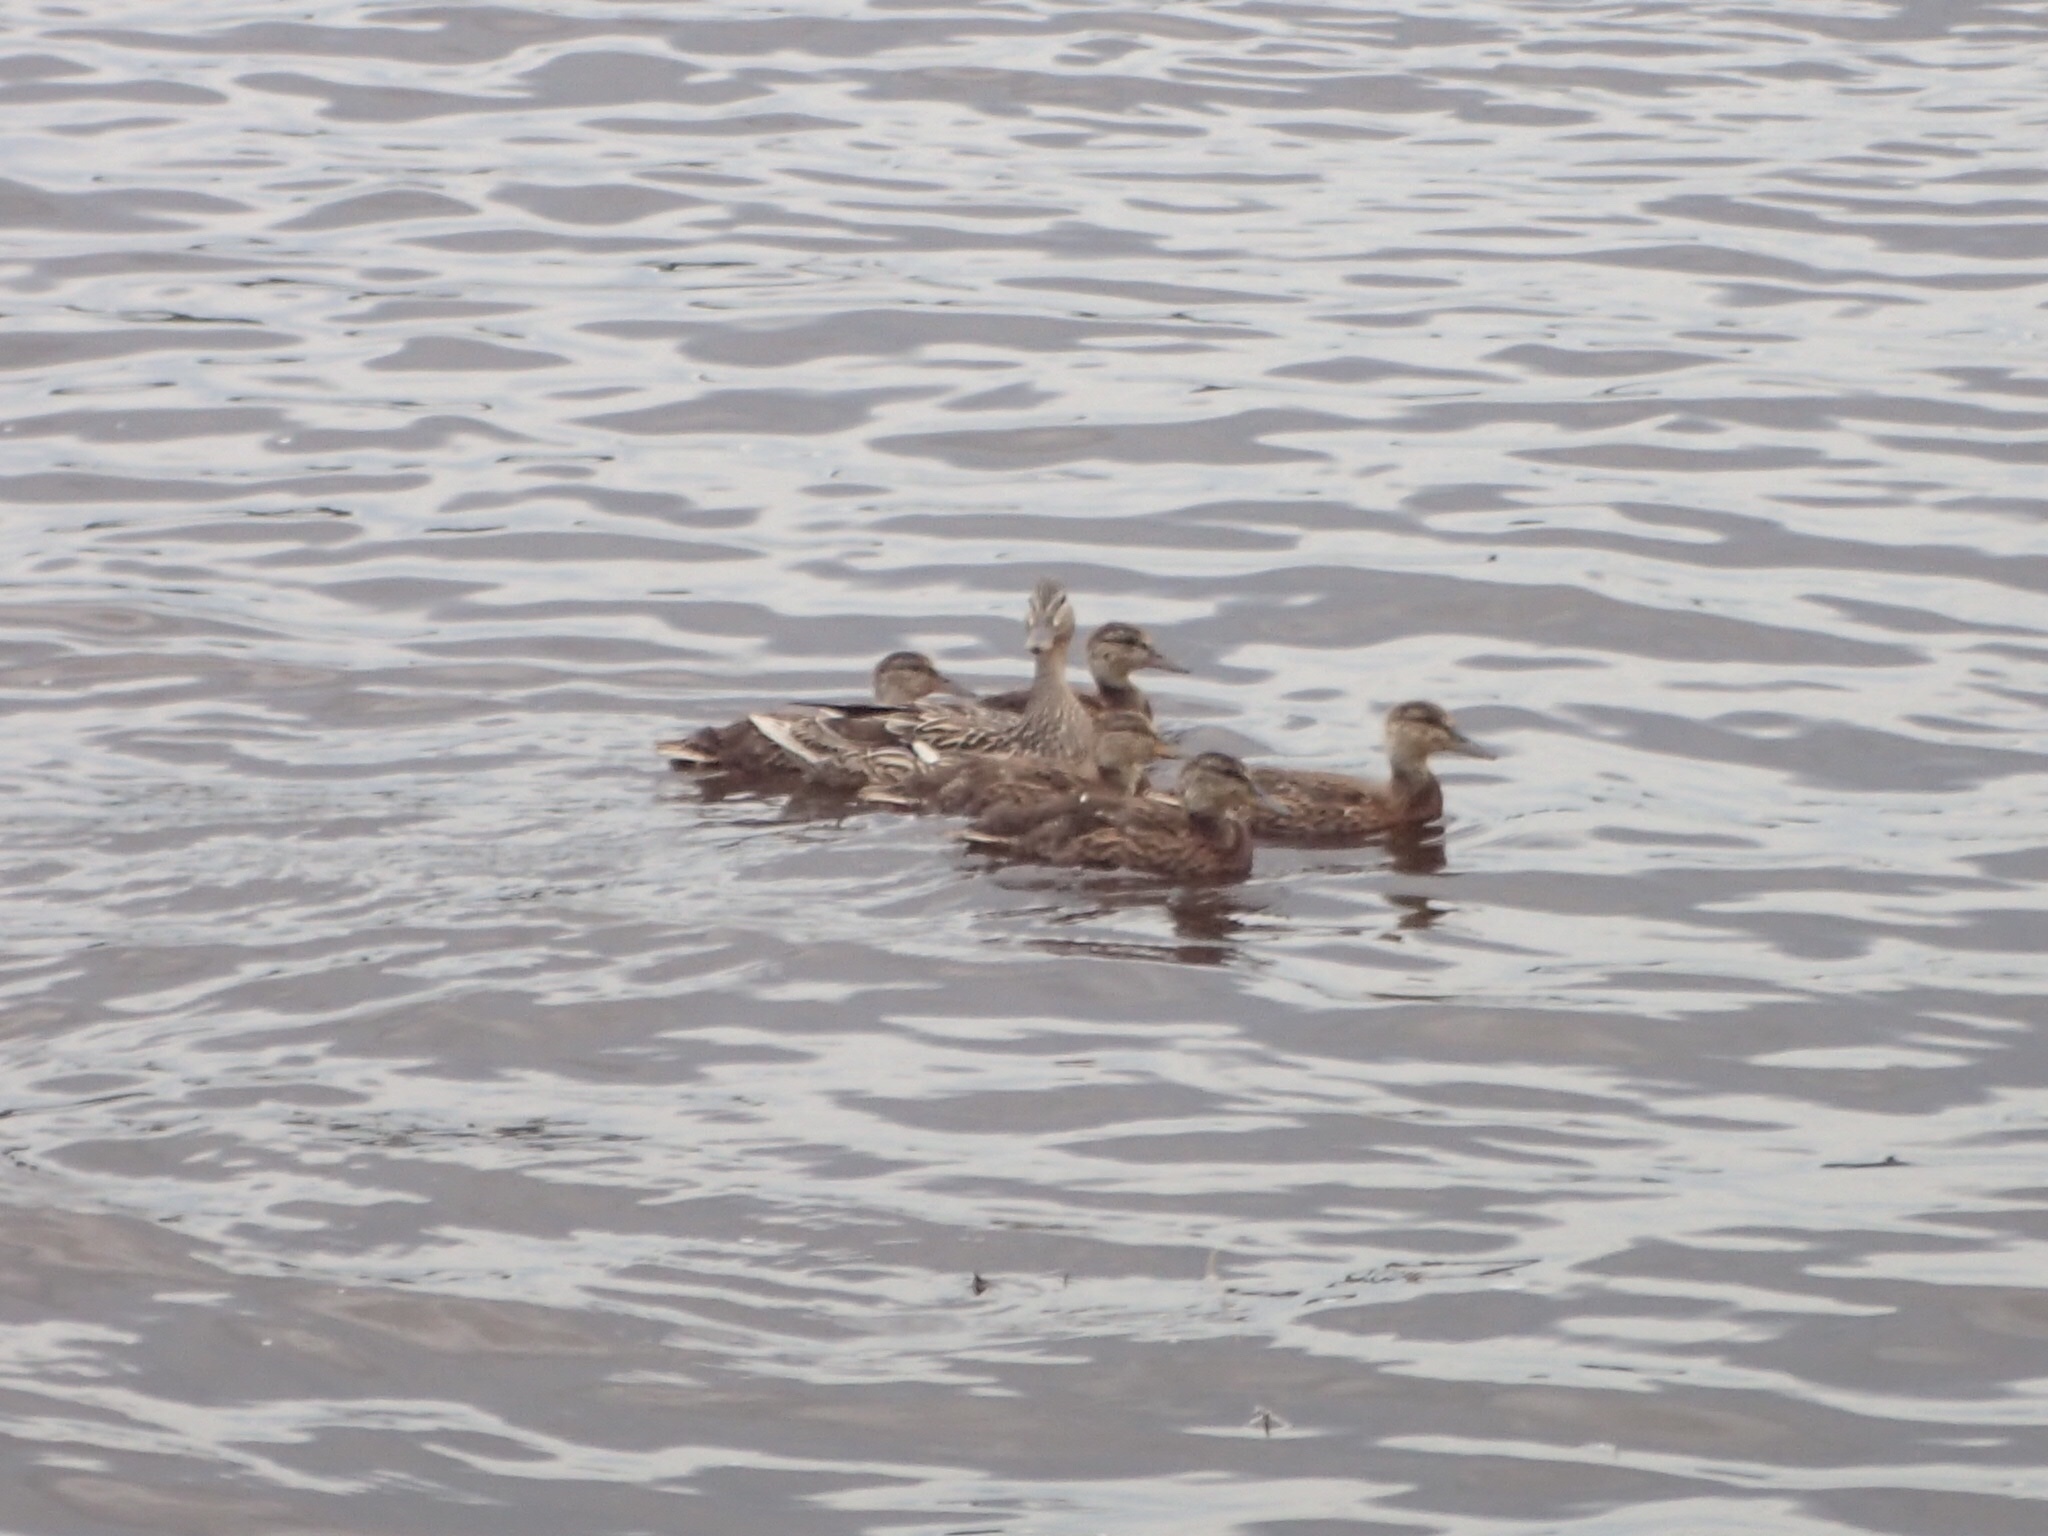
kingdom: Animalia
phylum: Chordata
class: Aves
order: Anseriformes
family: Anatidae
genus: Anas
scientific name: Anas platyrhynchos
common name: Mallard
